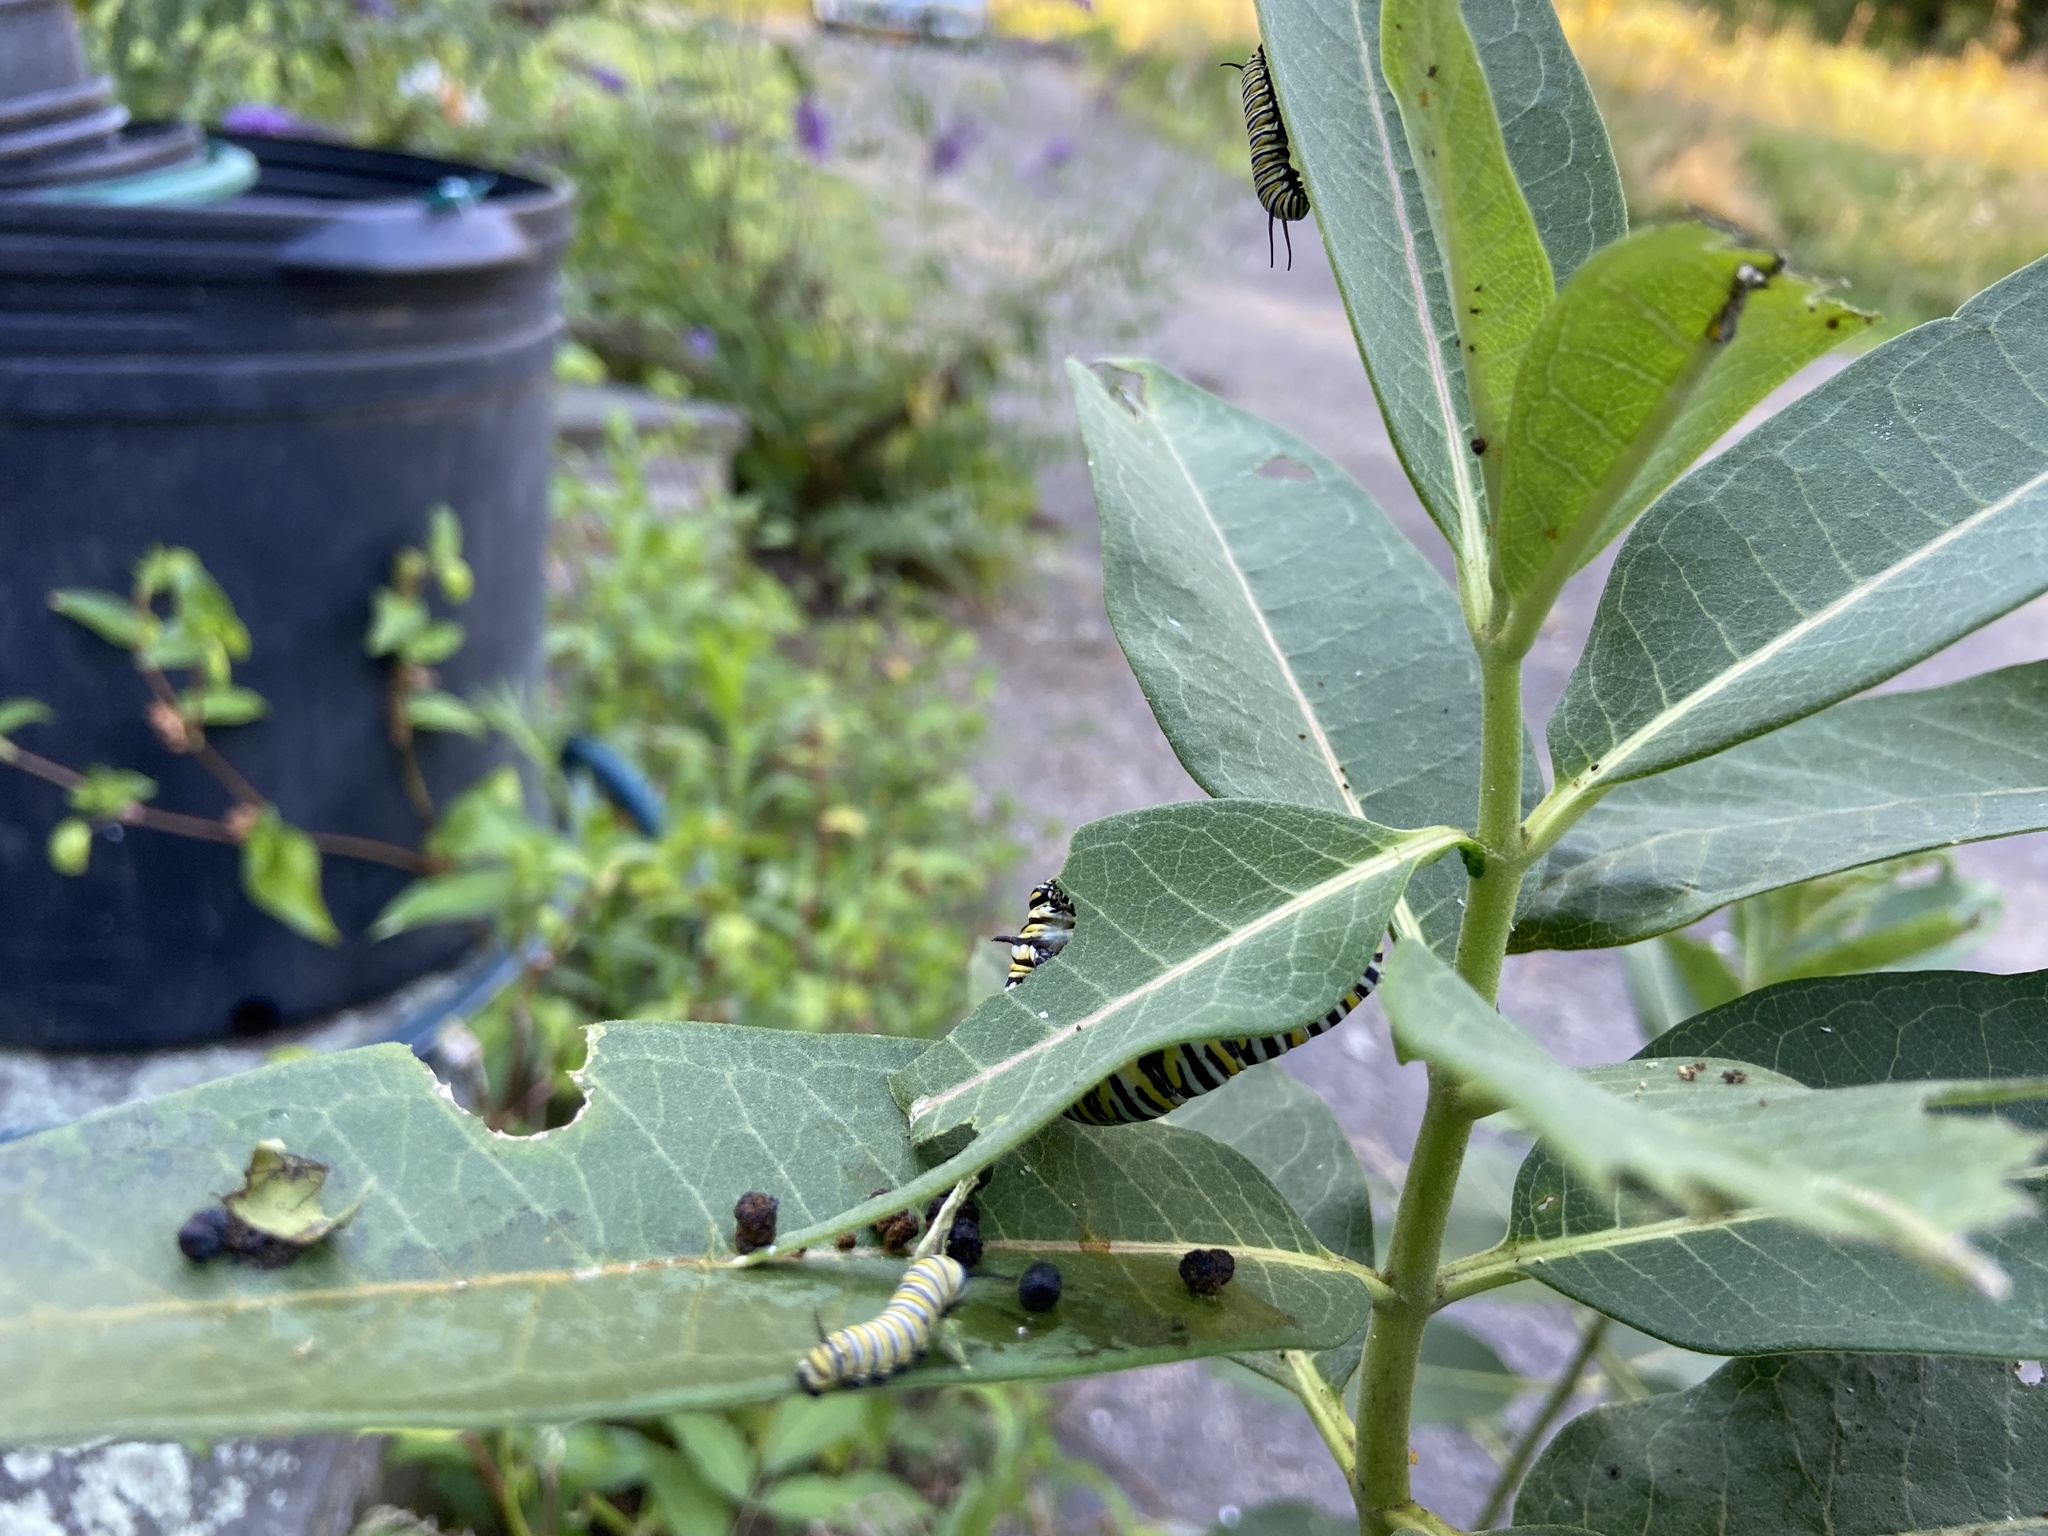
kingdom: Animalia
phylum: Arthropoda
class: Insecta
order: Lepidoptera
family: Nymphalidae
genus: Danaus
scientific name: Danaus plexippus
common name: Monarch
